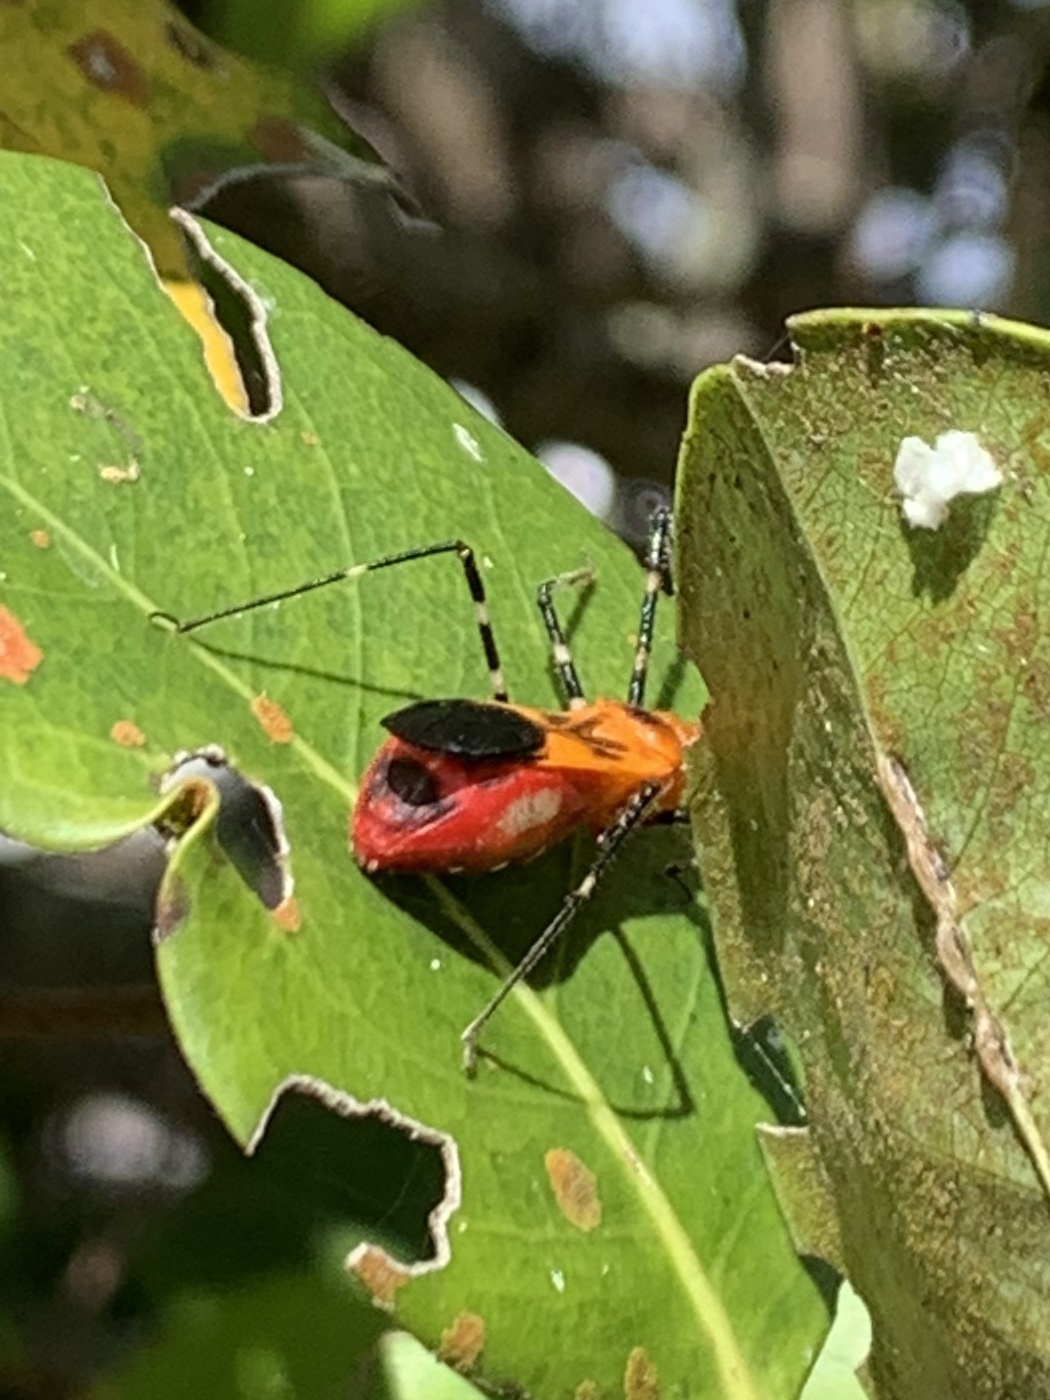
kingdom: Animalia
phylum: Arthropoda
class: Insecta
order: Hemiptera
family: Reduviidae
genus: Zelus
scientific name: Zelus longipes
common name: Milkweed assassin bug
